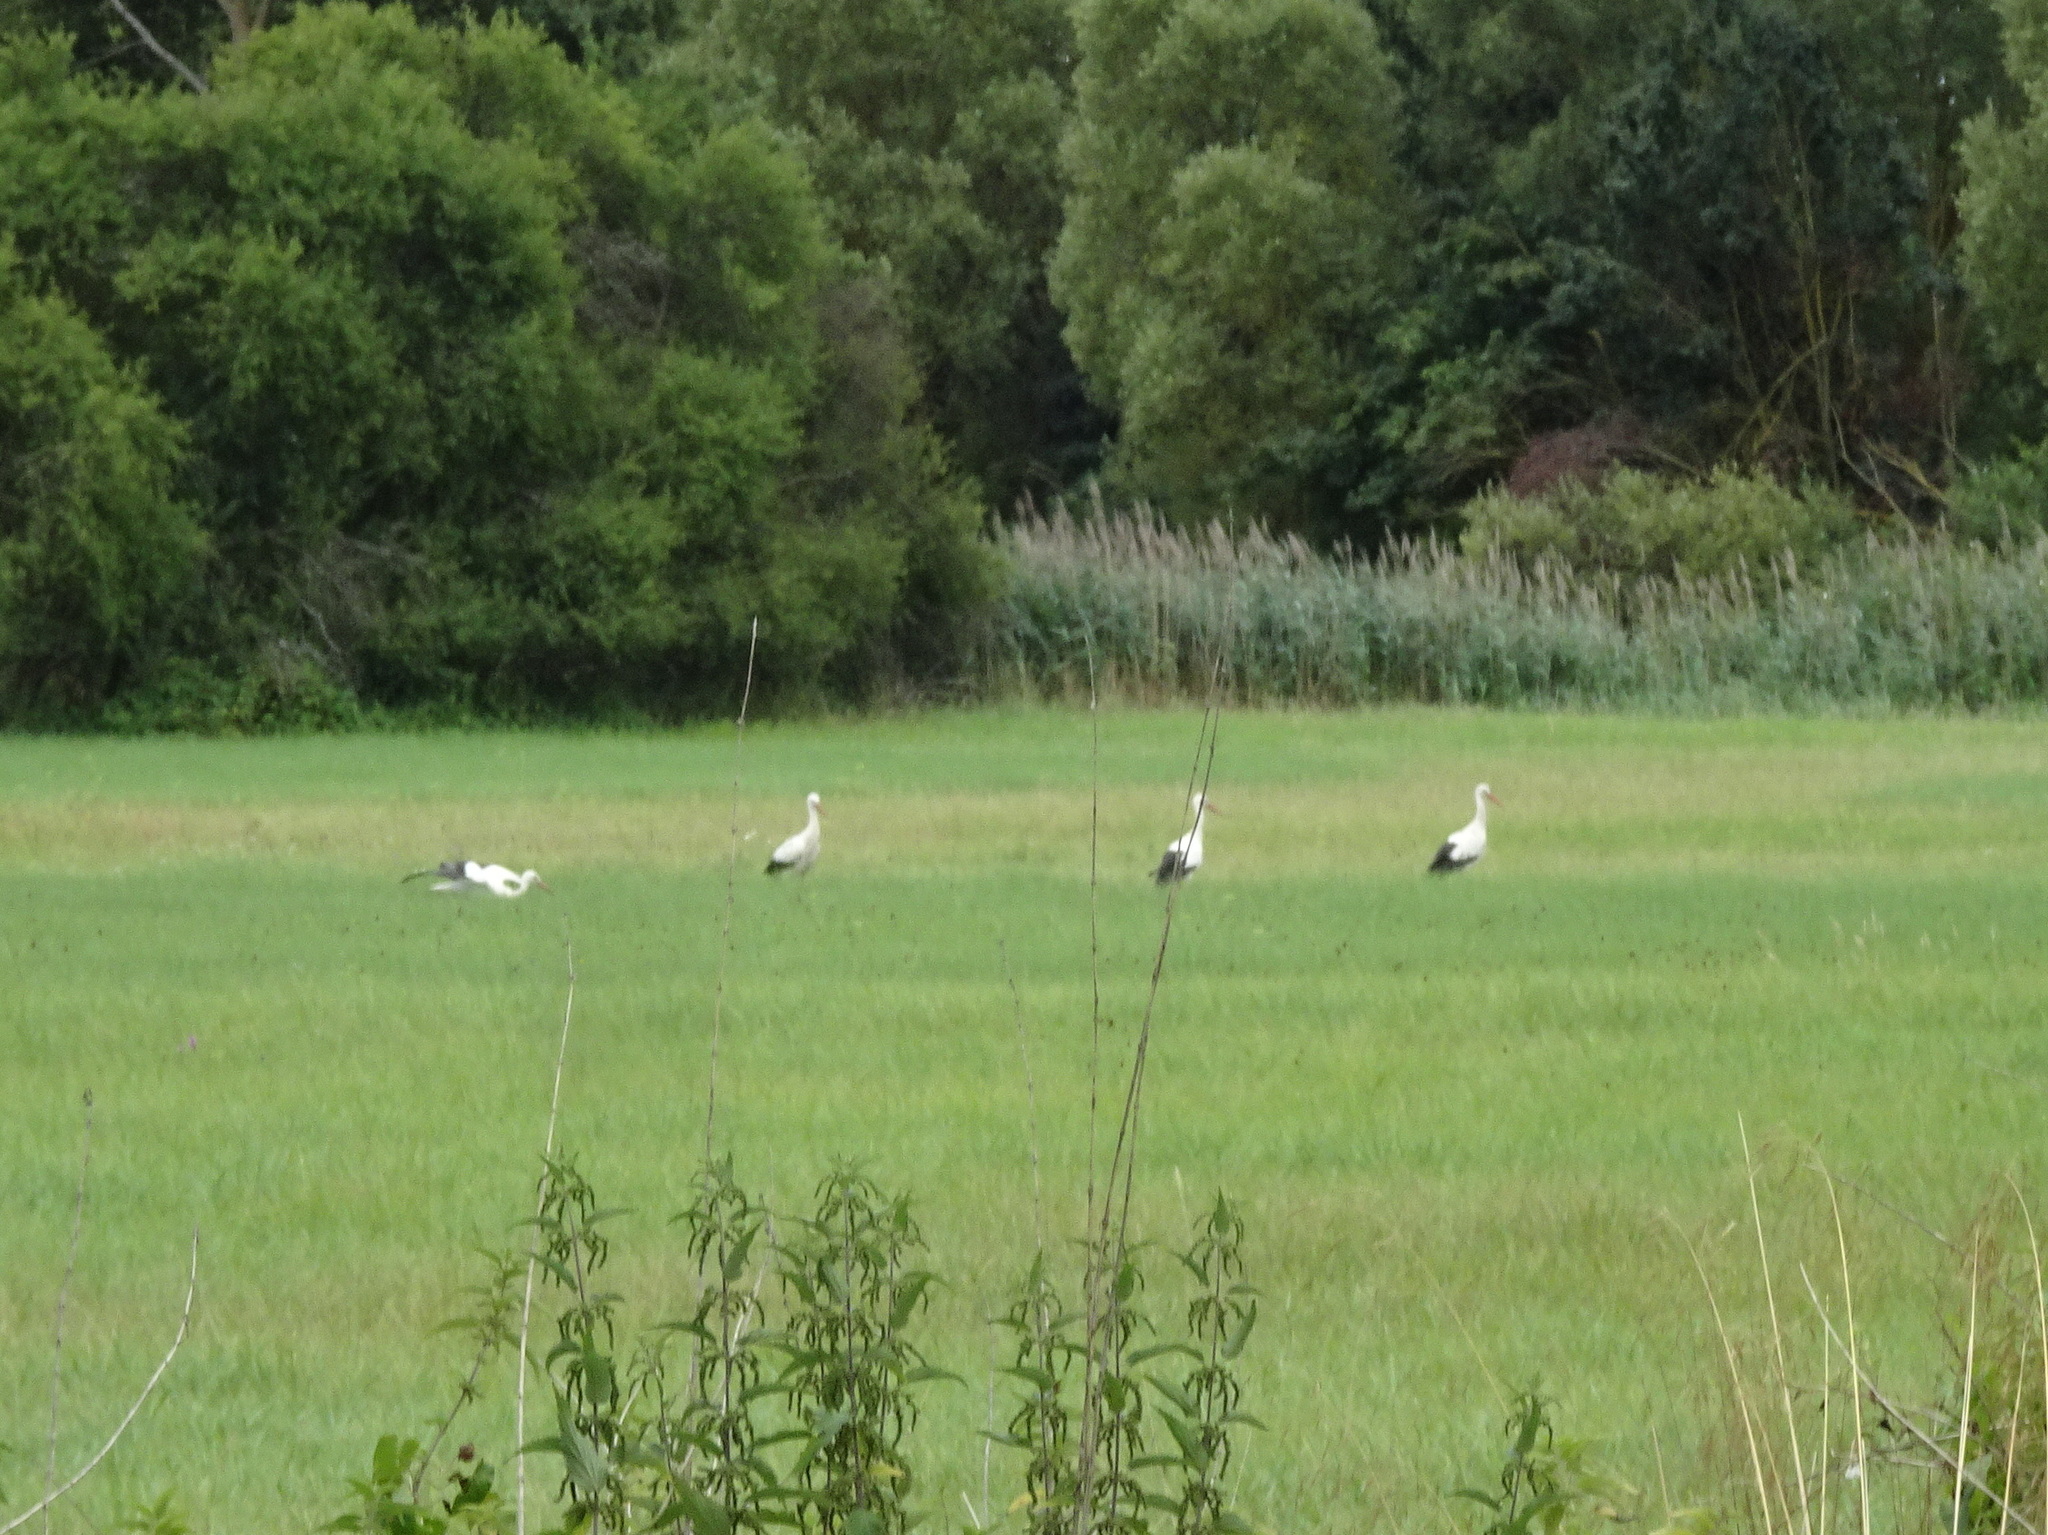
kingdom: Animalia
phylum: Chordata
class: Aves
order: Ciconiiformes
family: Ciconiidae
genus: Ciconia
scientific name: Ciconia ciconia
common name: White stork
